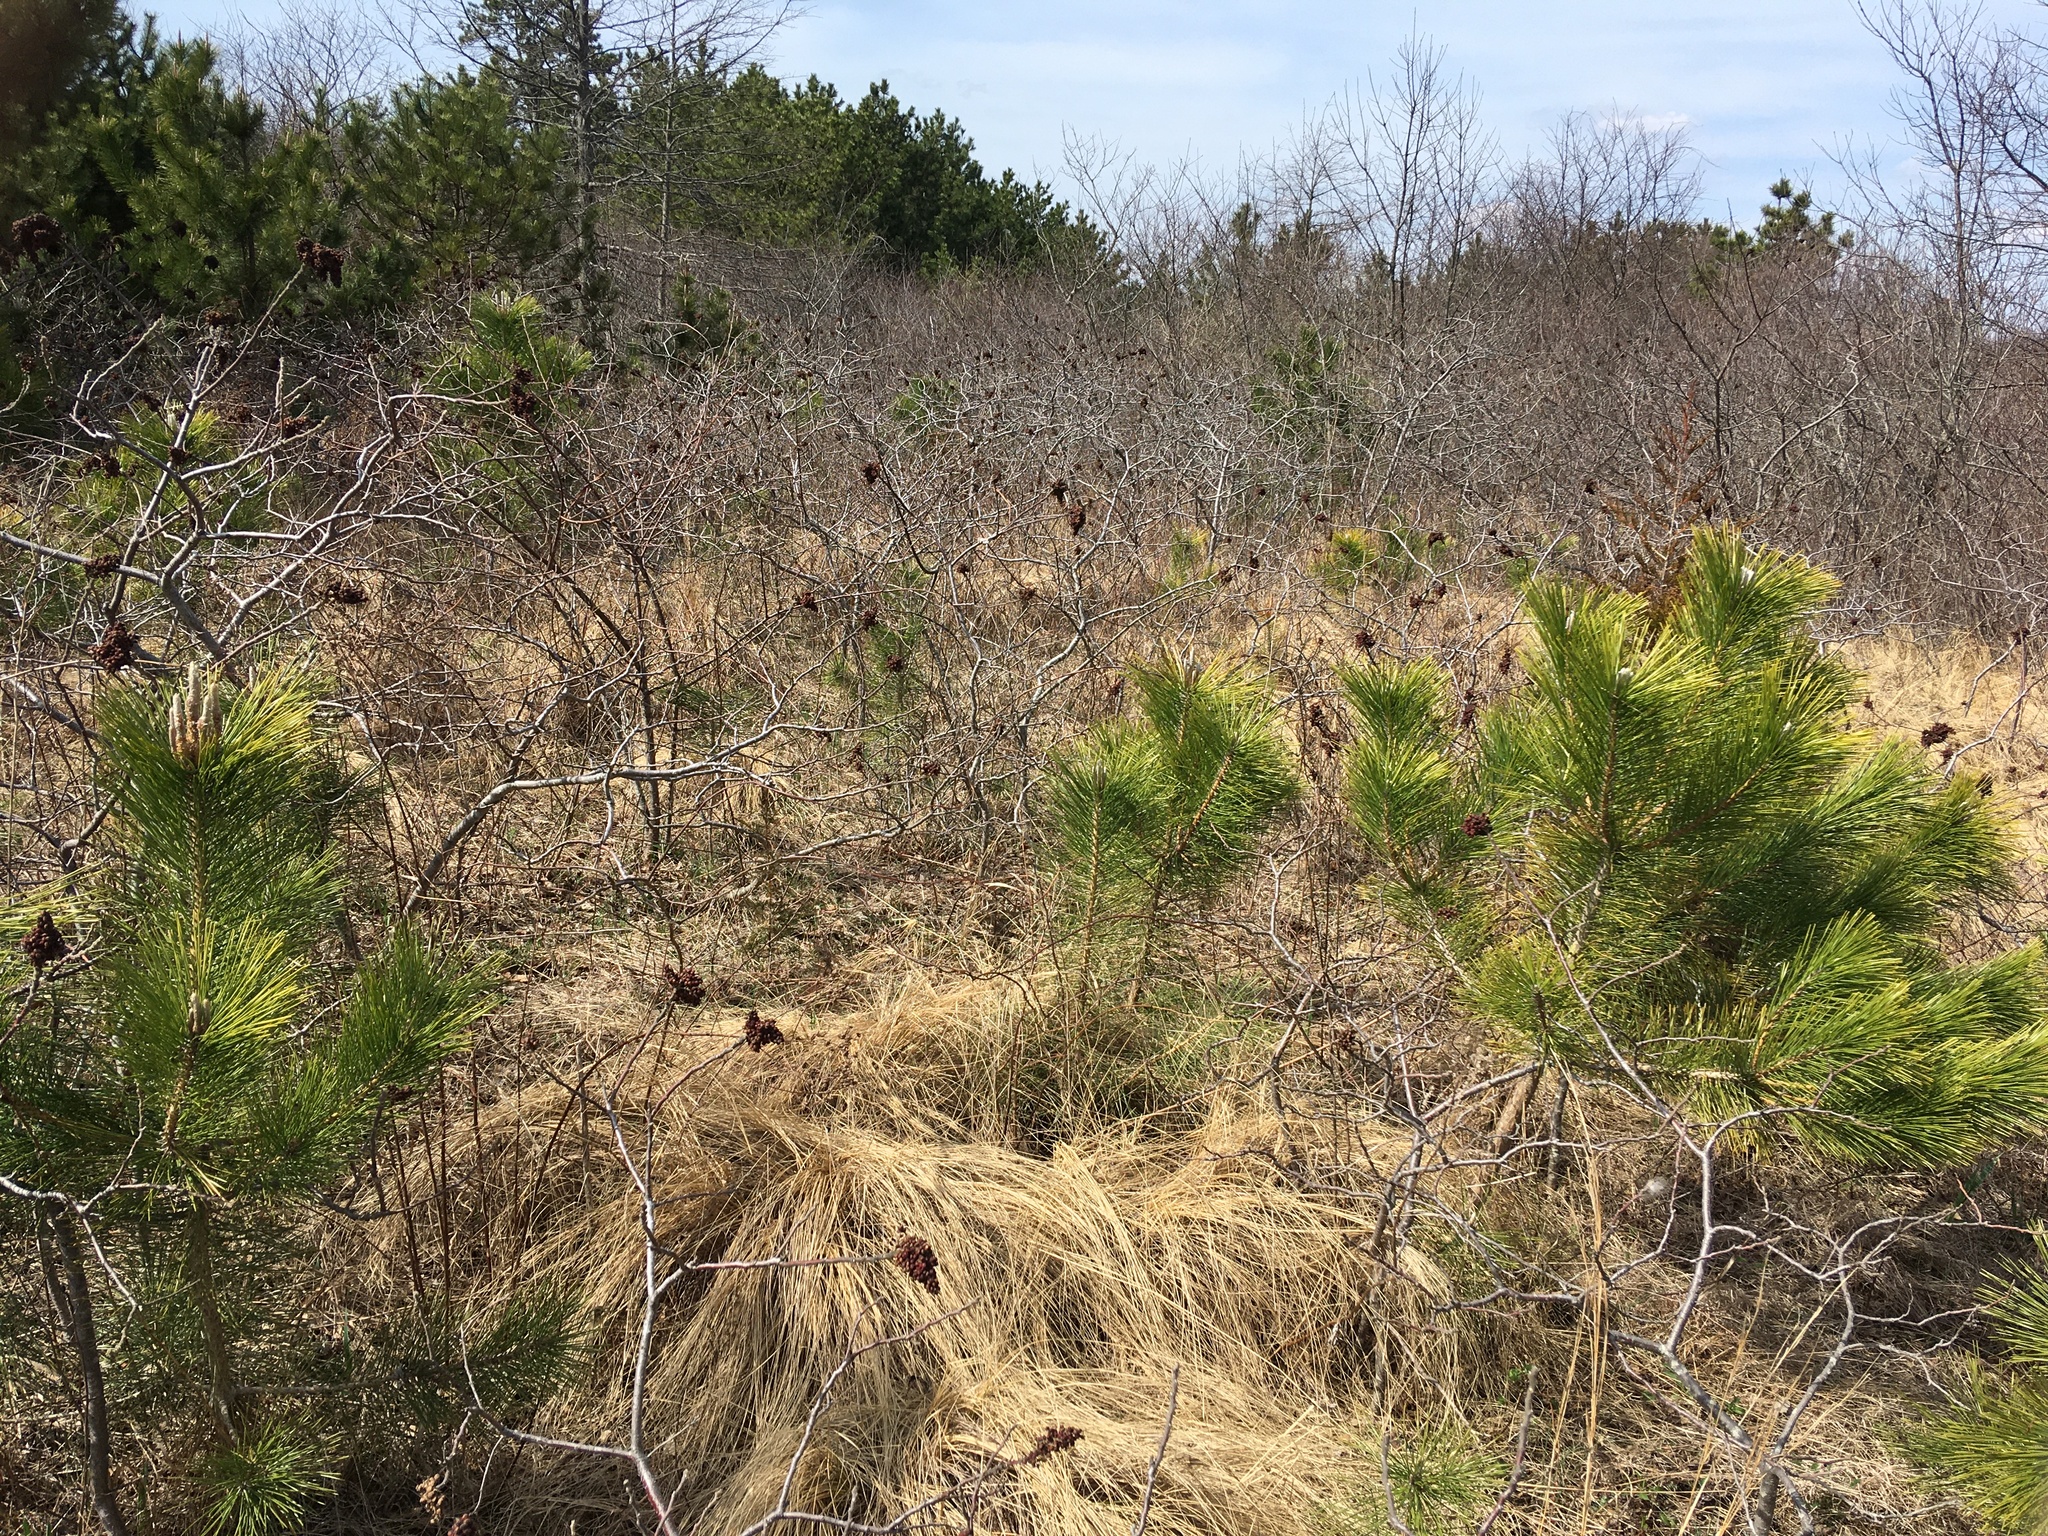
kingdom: Plantae
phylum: Tracheophyta
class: Magnoliopsida
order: Sapindales
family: Anacardiaceae
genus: Rhus
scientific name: Rhus copallina
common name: Shining sumac
